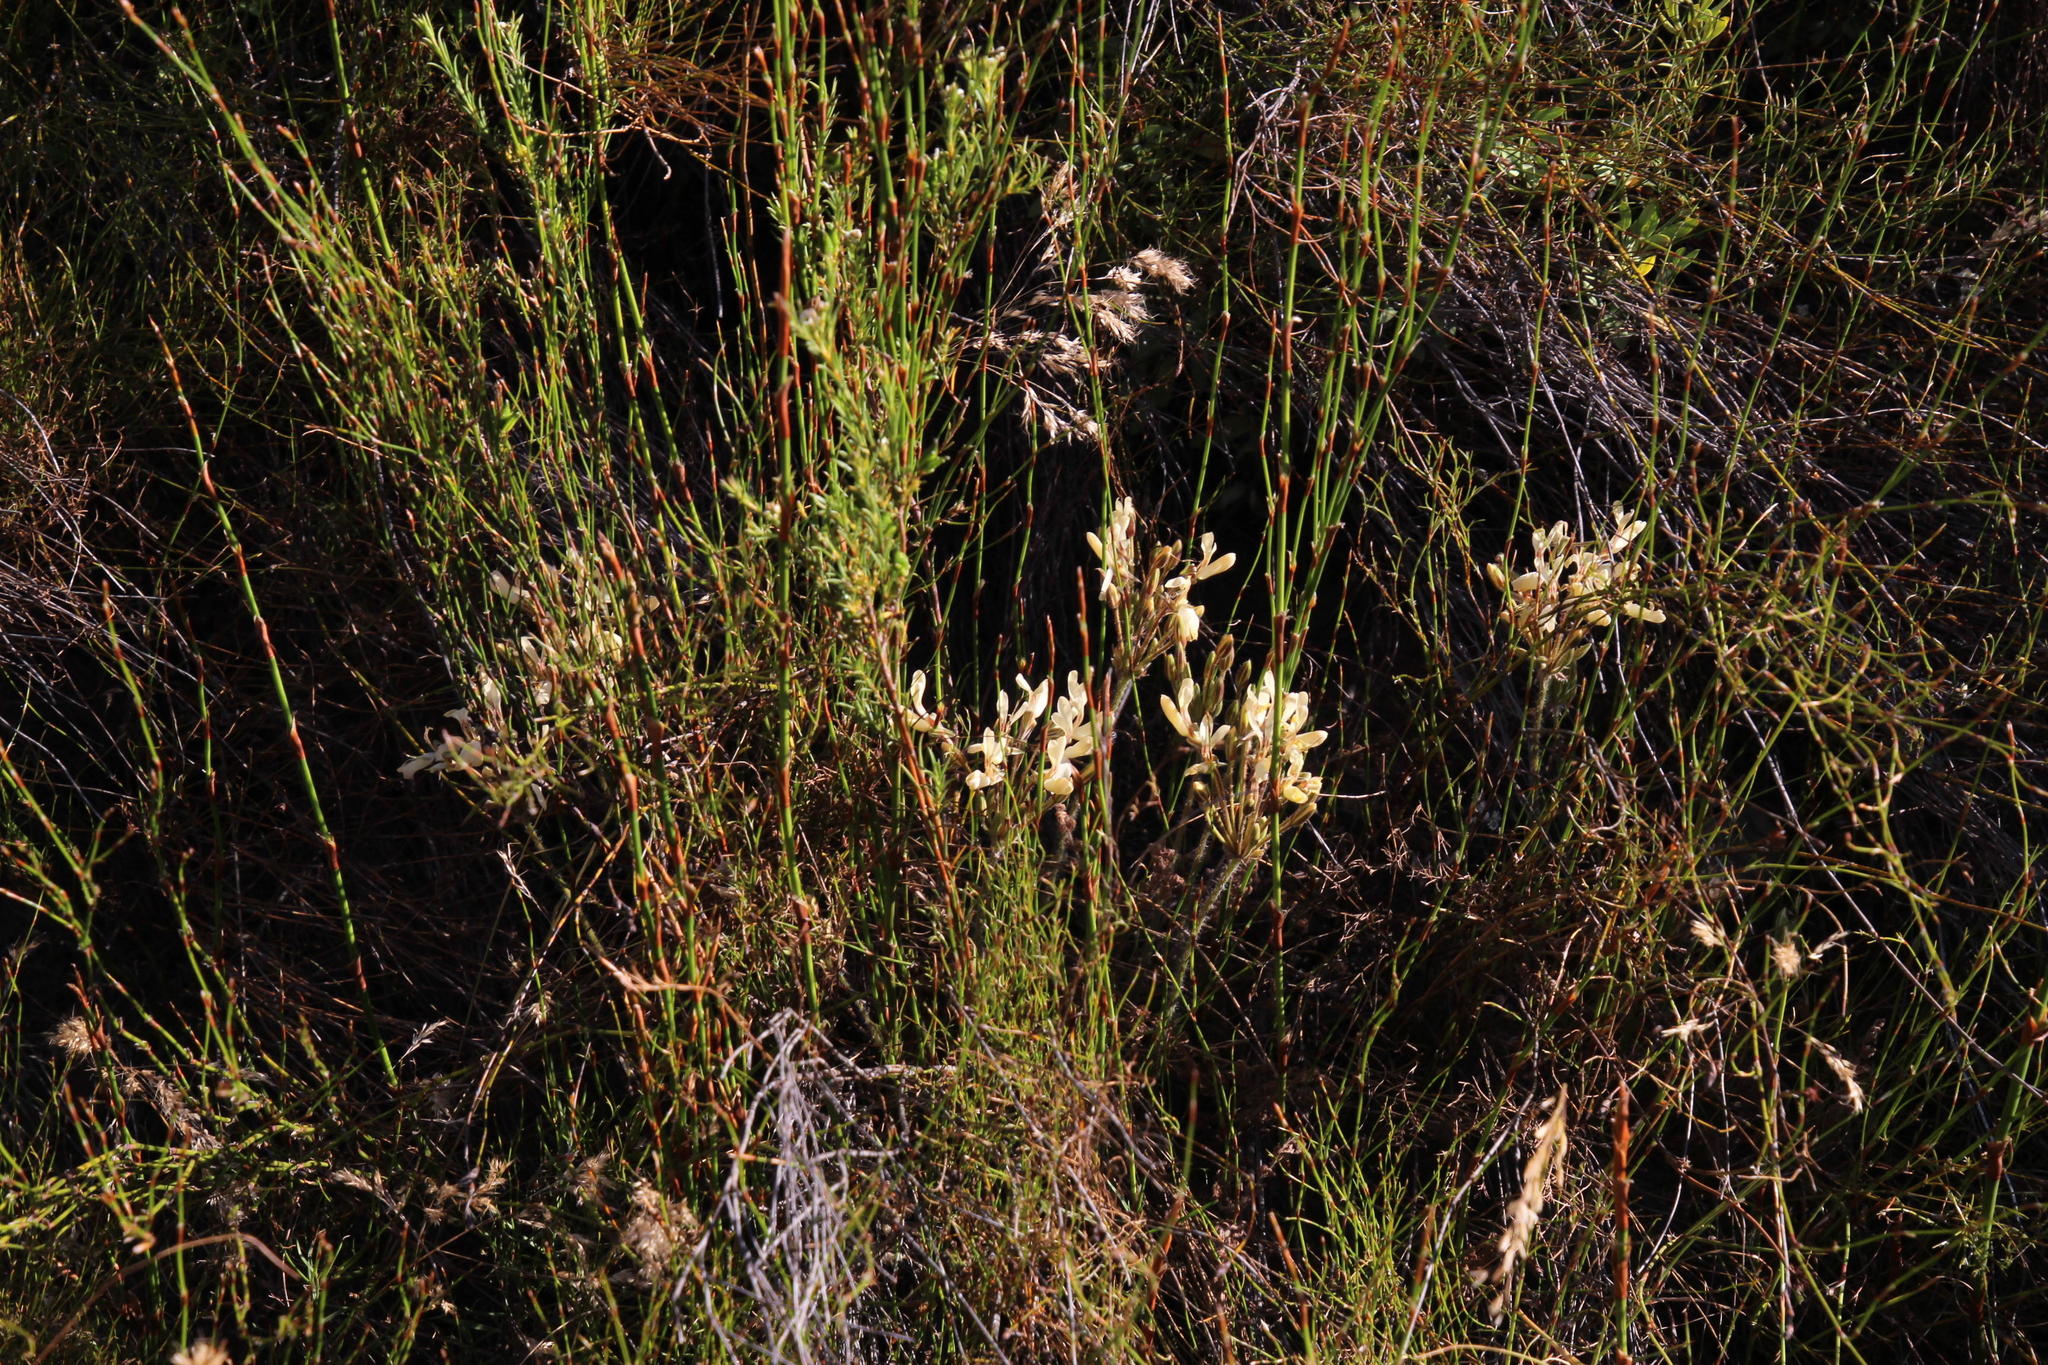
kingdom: Plantae
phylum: Tracheophyta
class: Magnoliopsida
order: Geraniales
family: Geraniaceae
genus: Pelargonium
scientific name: Pelargonium rapaceum
